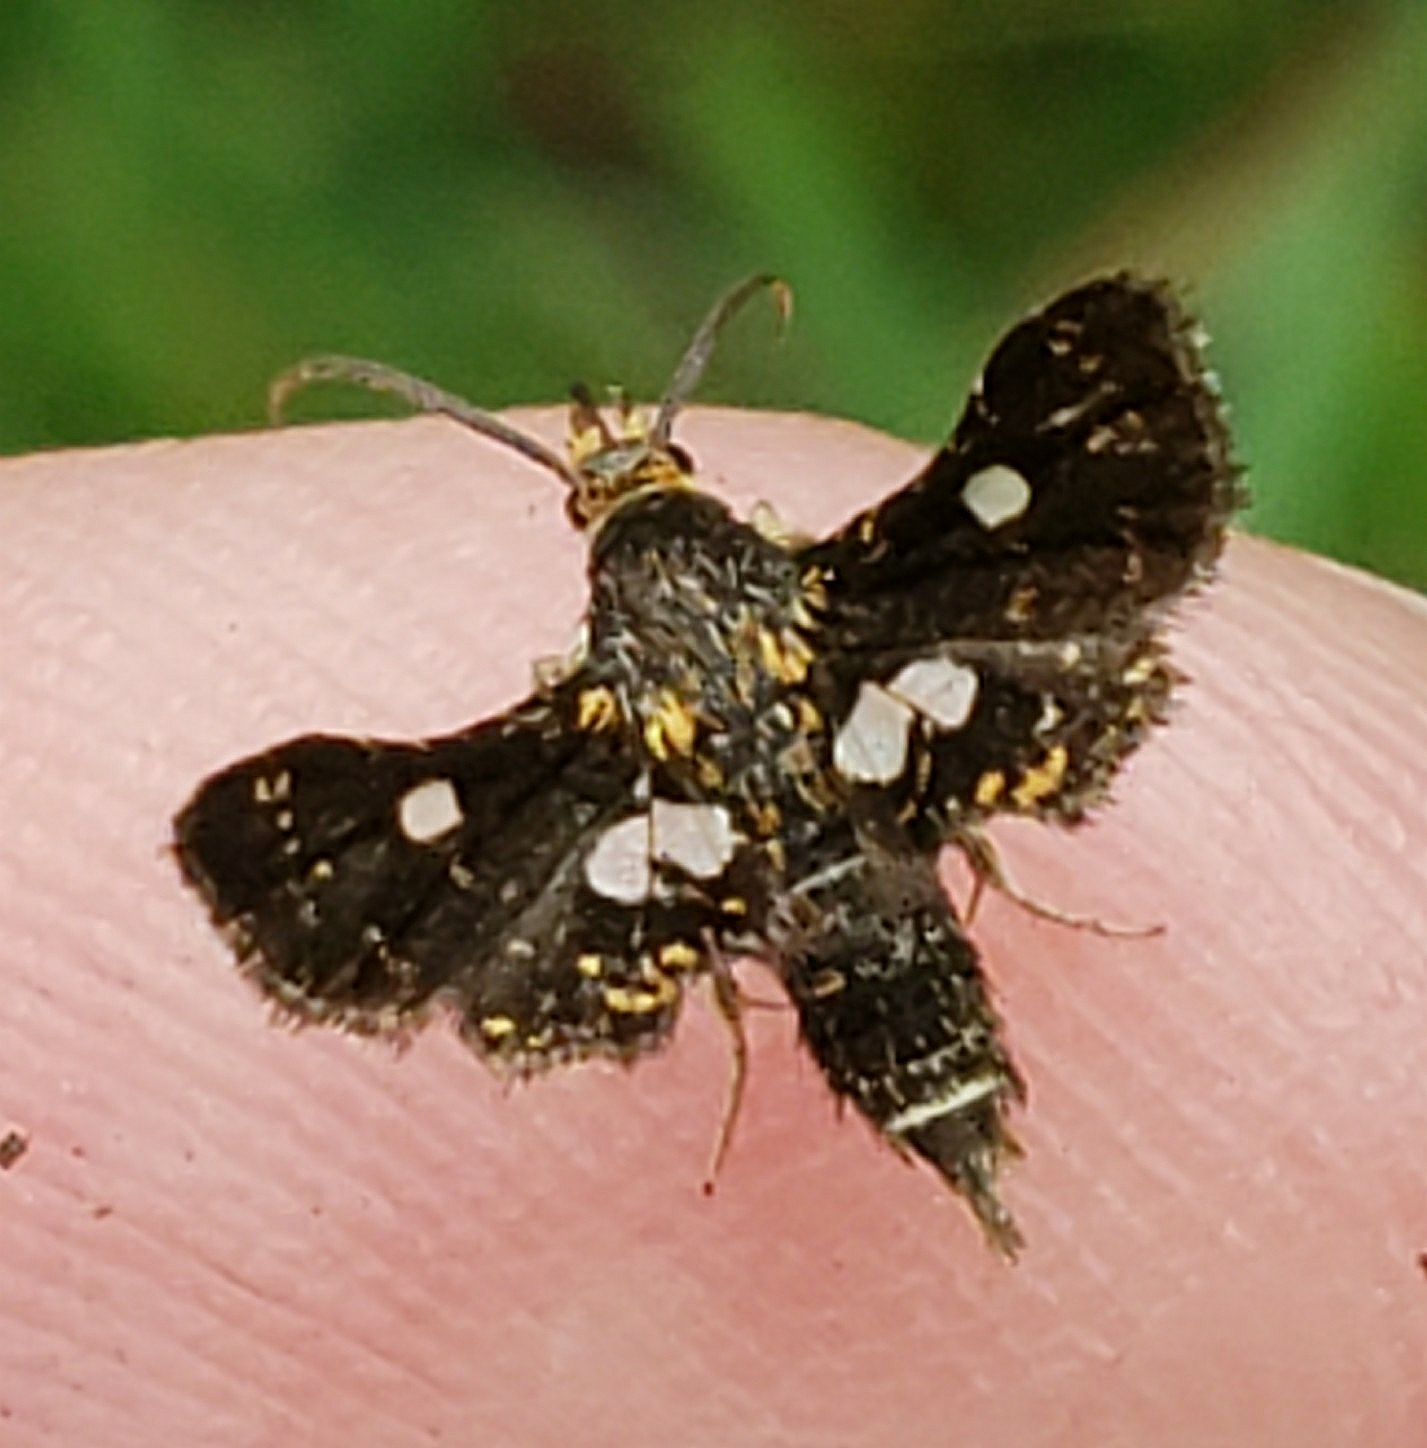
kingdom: Animalia
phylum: Arthropoda
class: Insecta
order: Lepidoptera
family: Thyrididae
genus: Thyris
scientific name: Thyris maculata
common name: Spotted thyris moth
